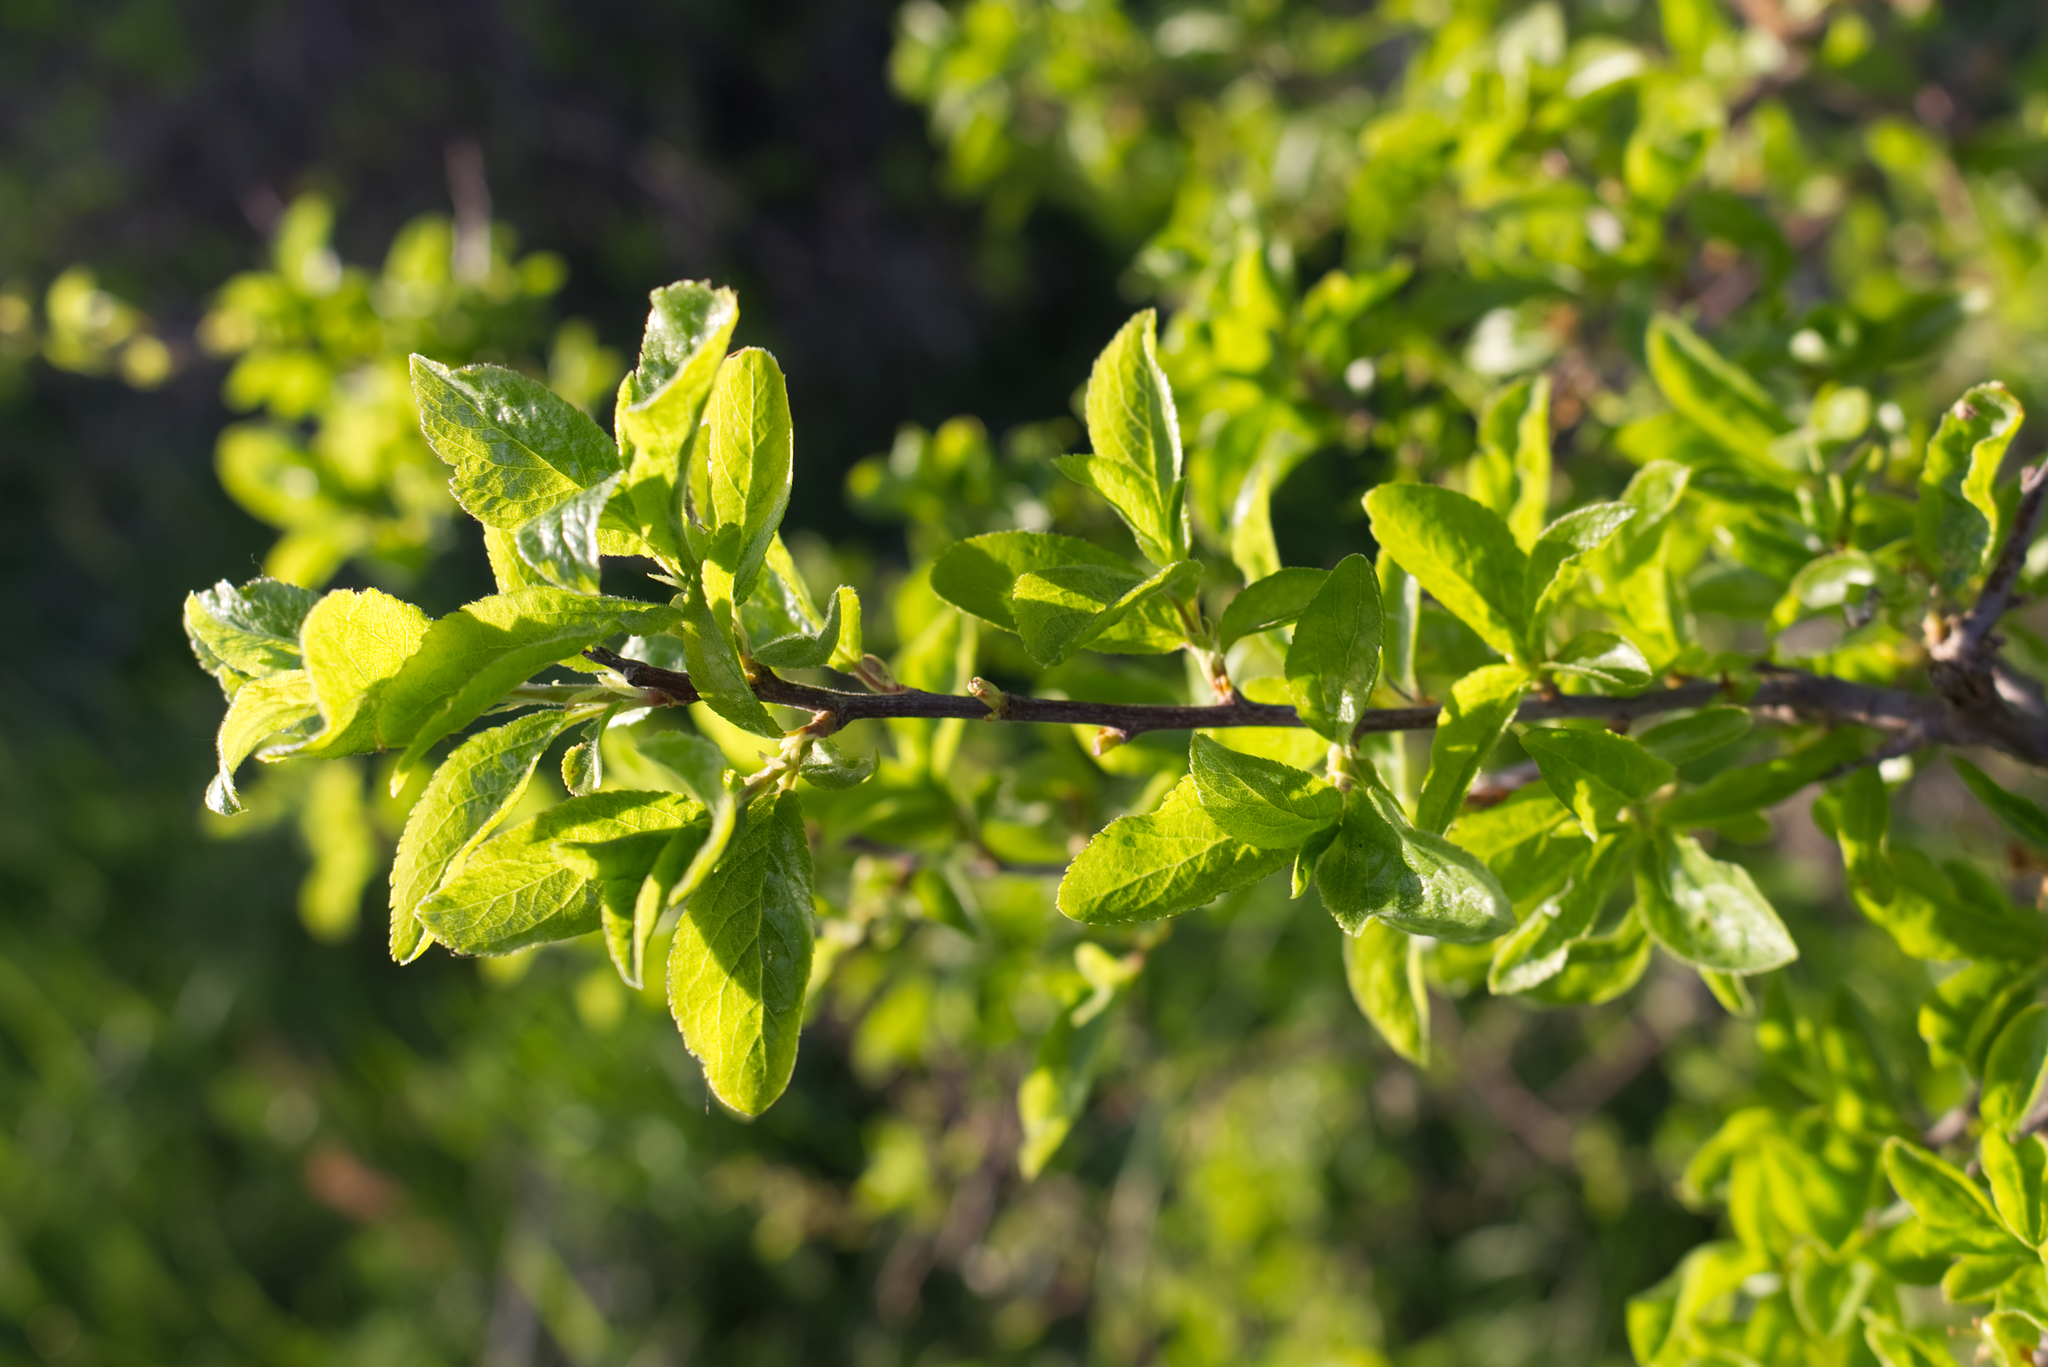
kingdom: Plantae
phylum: Tracheophyta
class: Magnoliopsida
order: Rosales
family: Rosaceae
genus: Prunus
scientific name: Prunus spinosa
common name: Blackthorn
